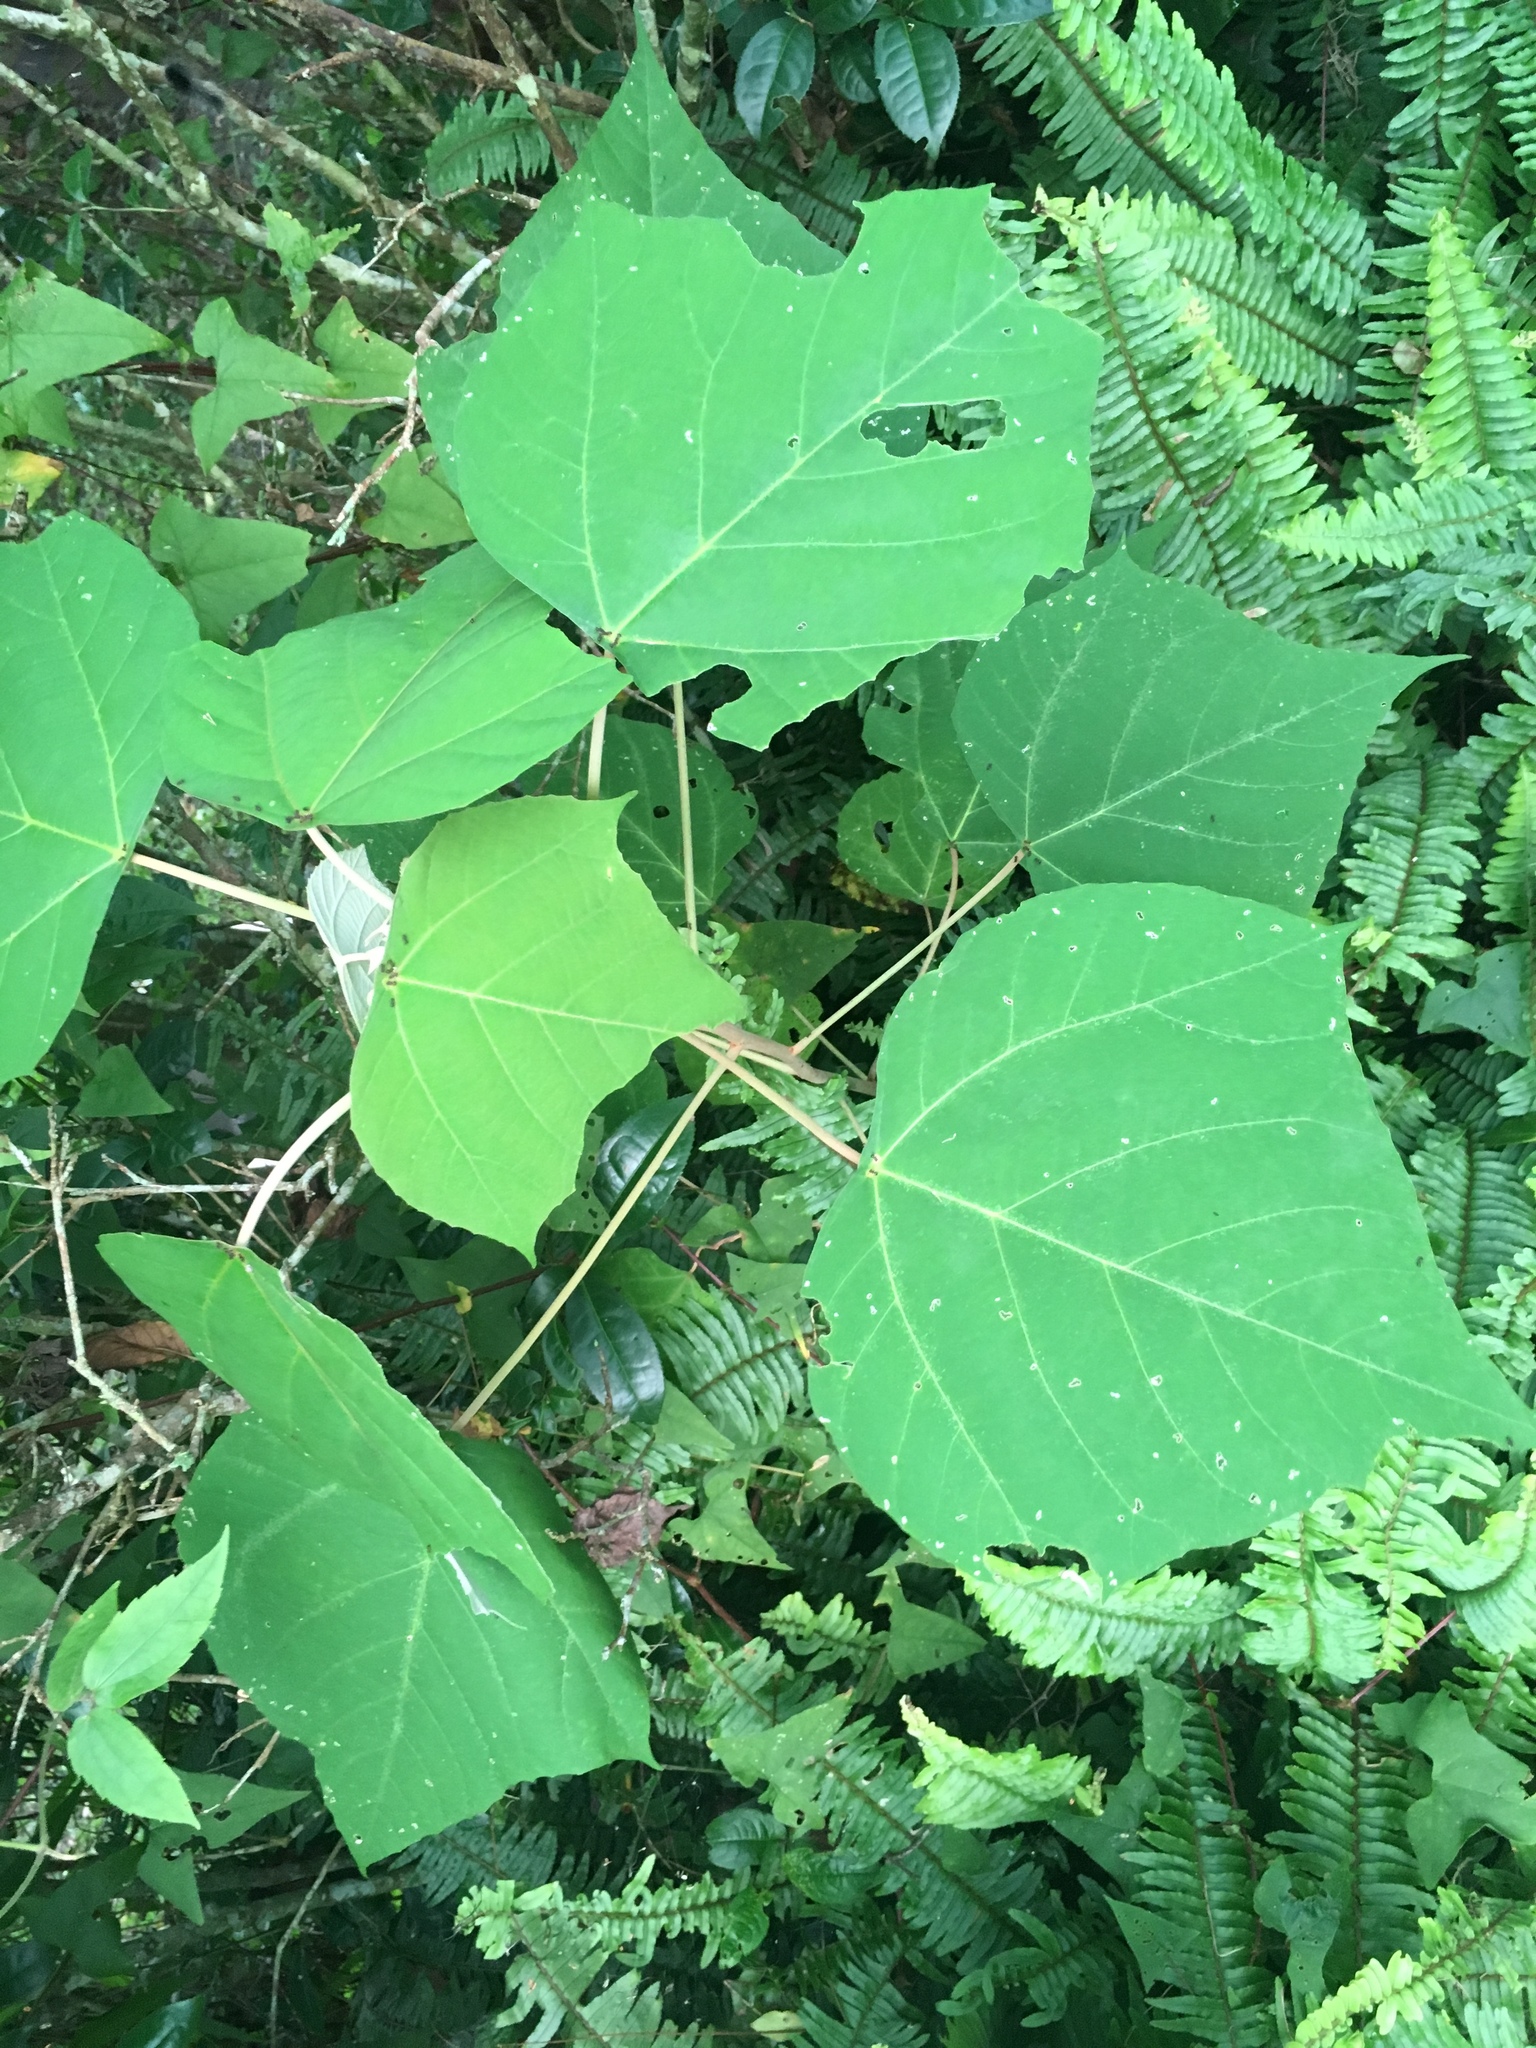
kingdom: Plantae
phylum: Tracheophyta
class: Magnoliopsida
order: Malpighiales
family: Euphorbiaceae
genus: Mallotus
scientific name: Mallotus paniculatus
